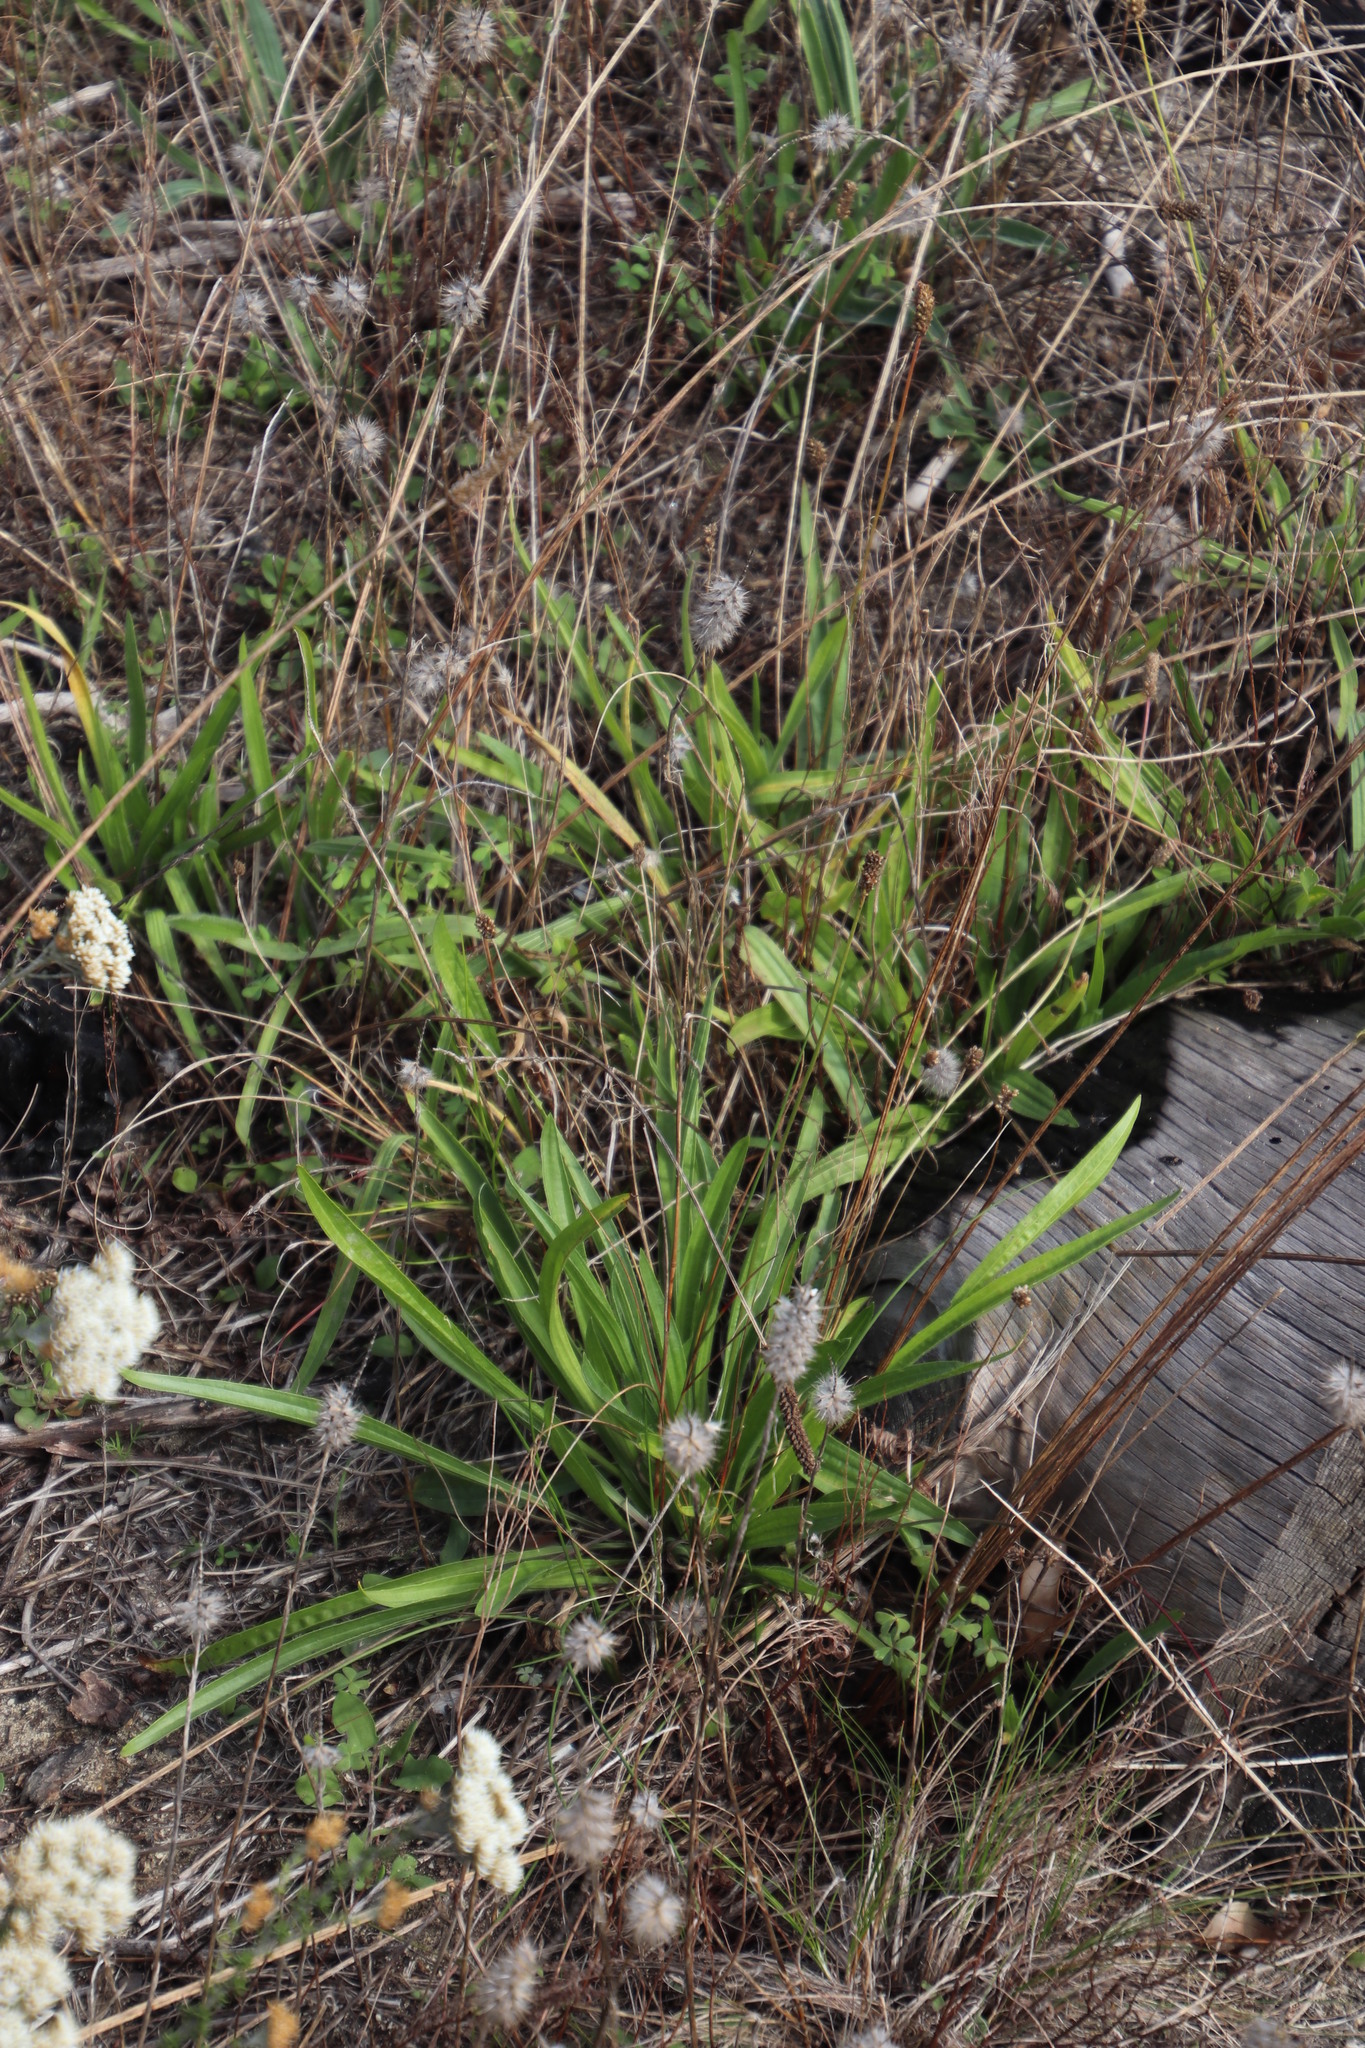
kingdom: Plantae
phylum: Tracheophyta
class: Magnoliopsida
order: Lamiales
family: Plantaginaceae
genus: Plantago
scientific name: Plantago lanceolata
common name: Ribwort plantain
